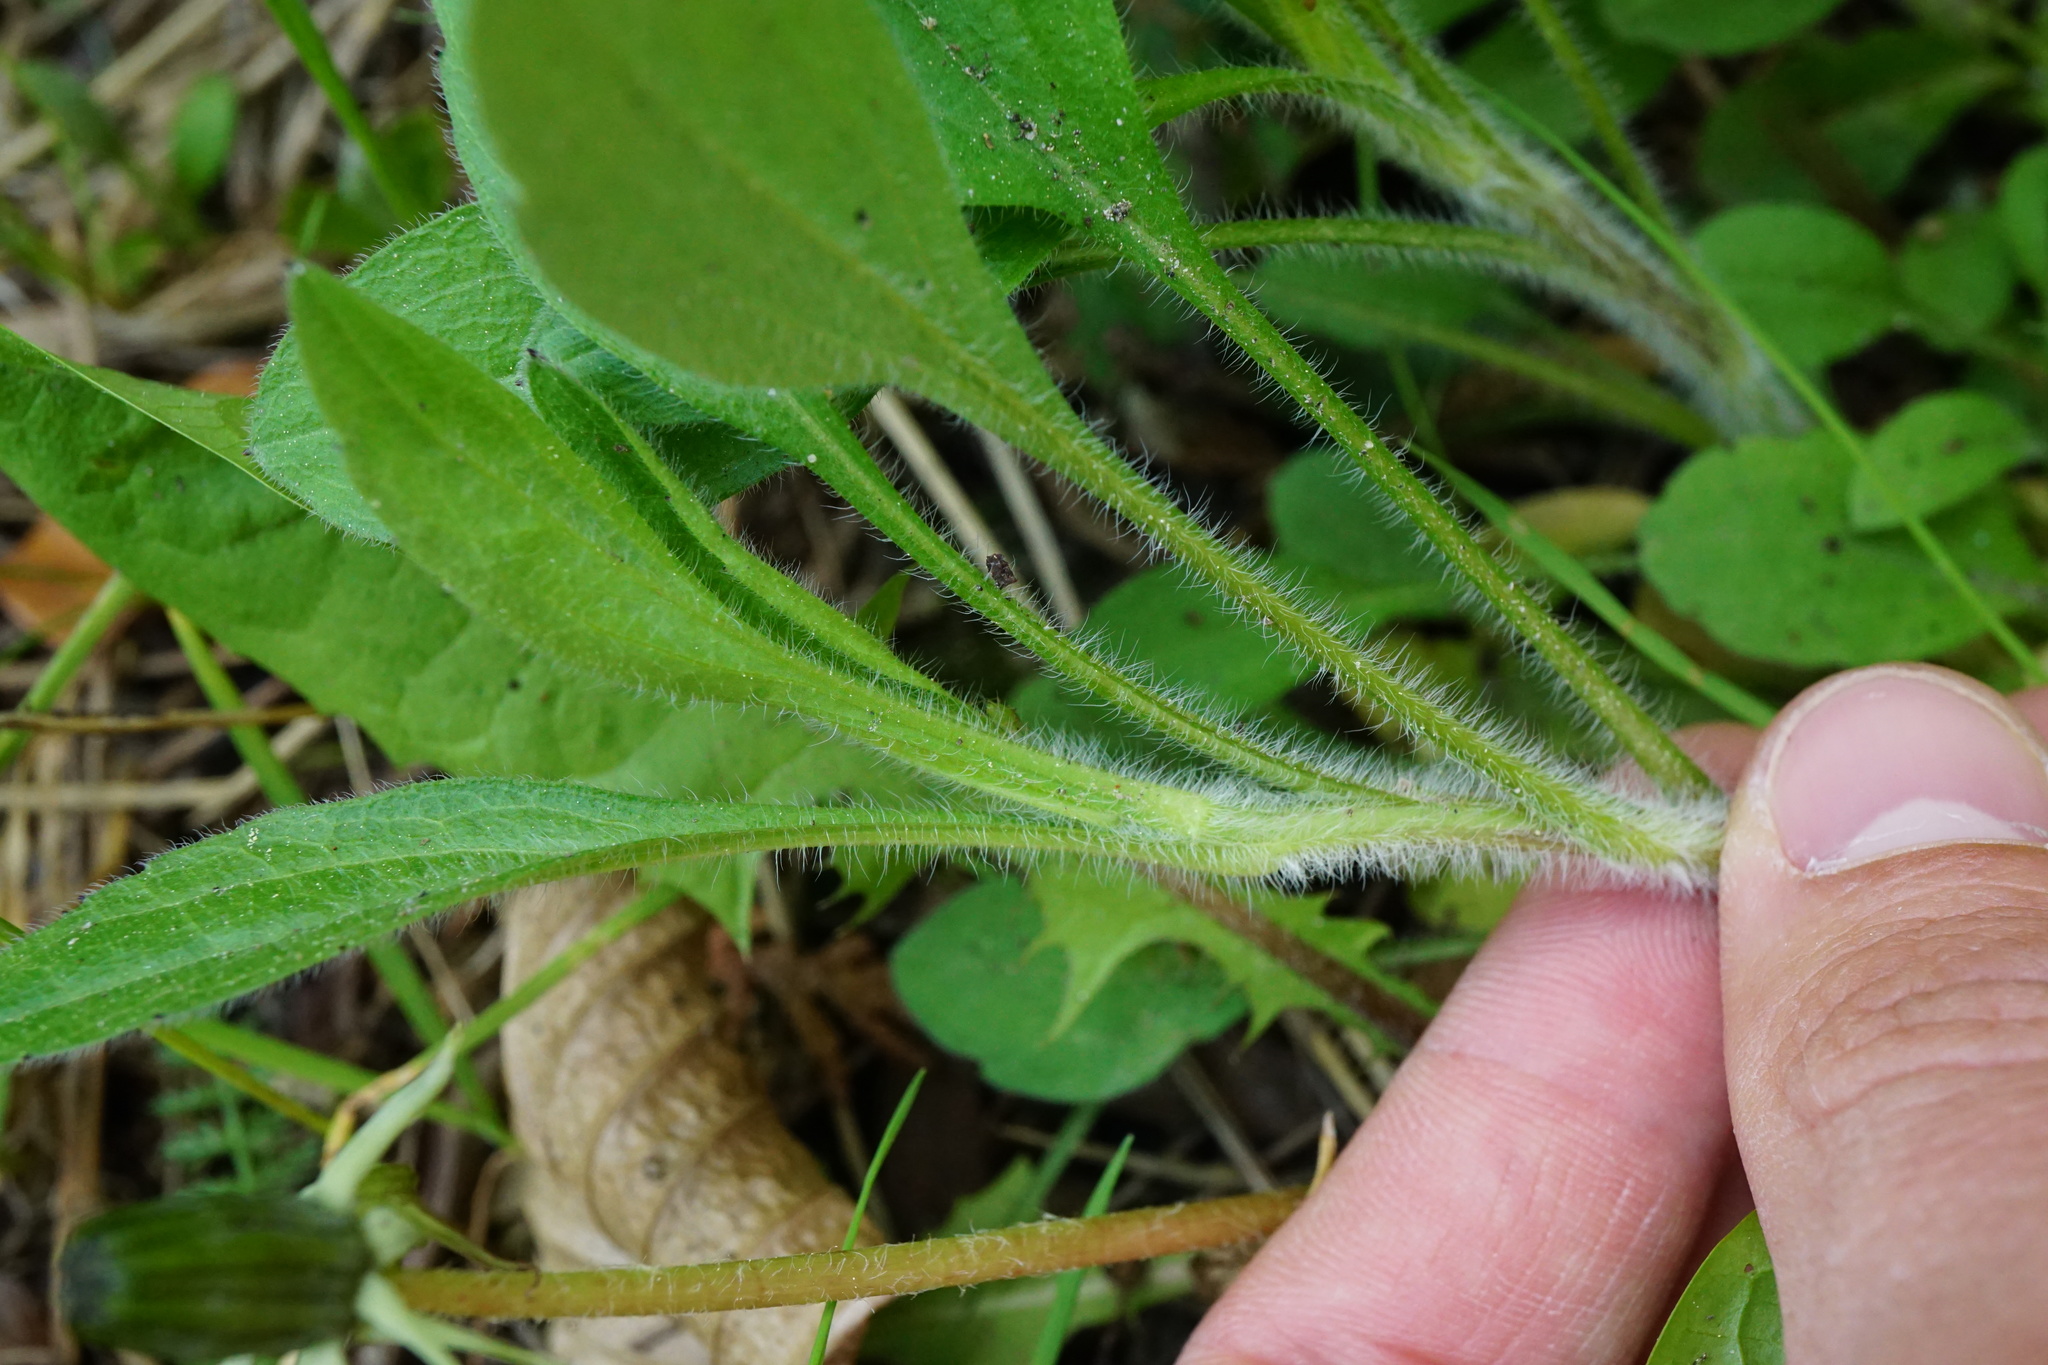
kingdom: Plantae
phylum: Tracheophyta
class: Magnoliopsida
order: Asterales
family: Asteraceae
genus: Erigeron
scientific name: Erigeron annuus
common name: Tall fleabane
